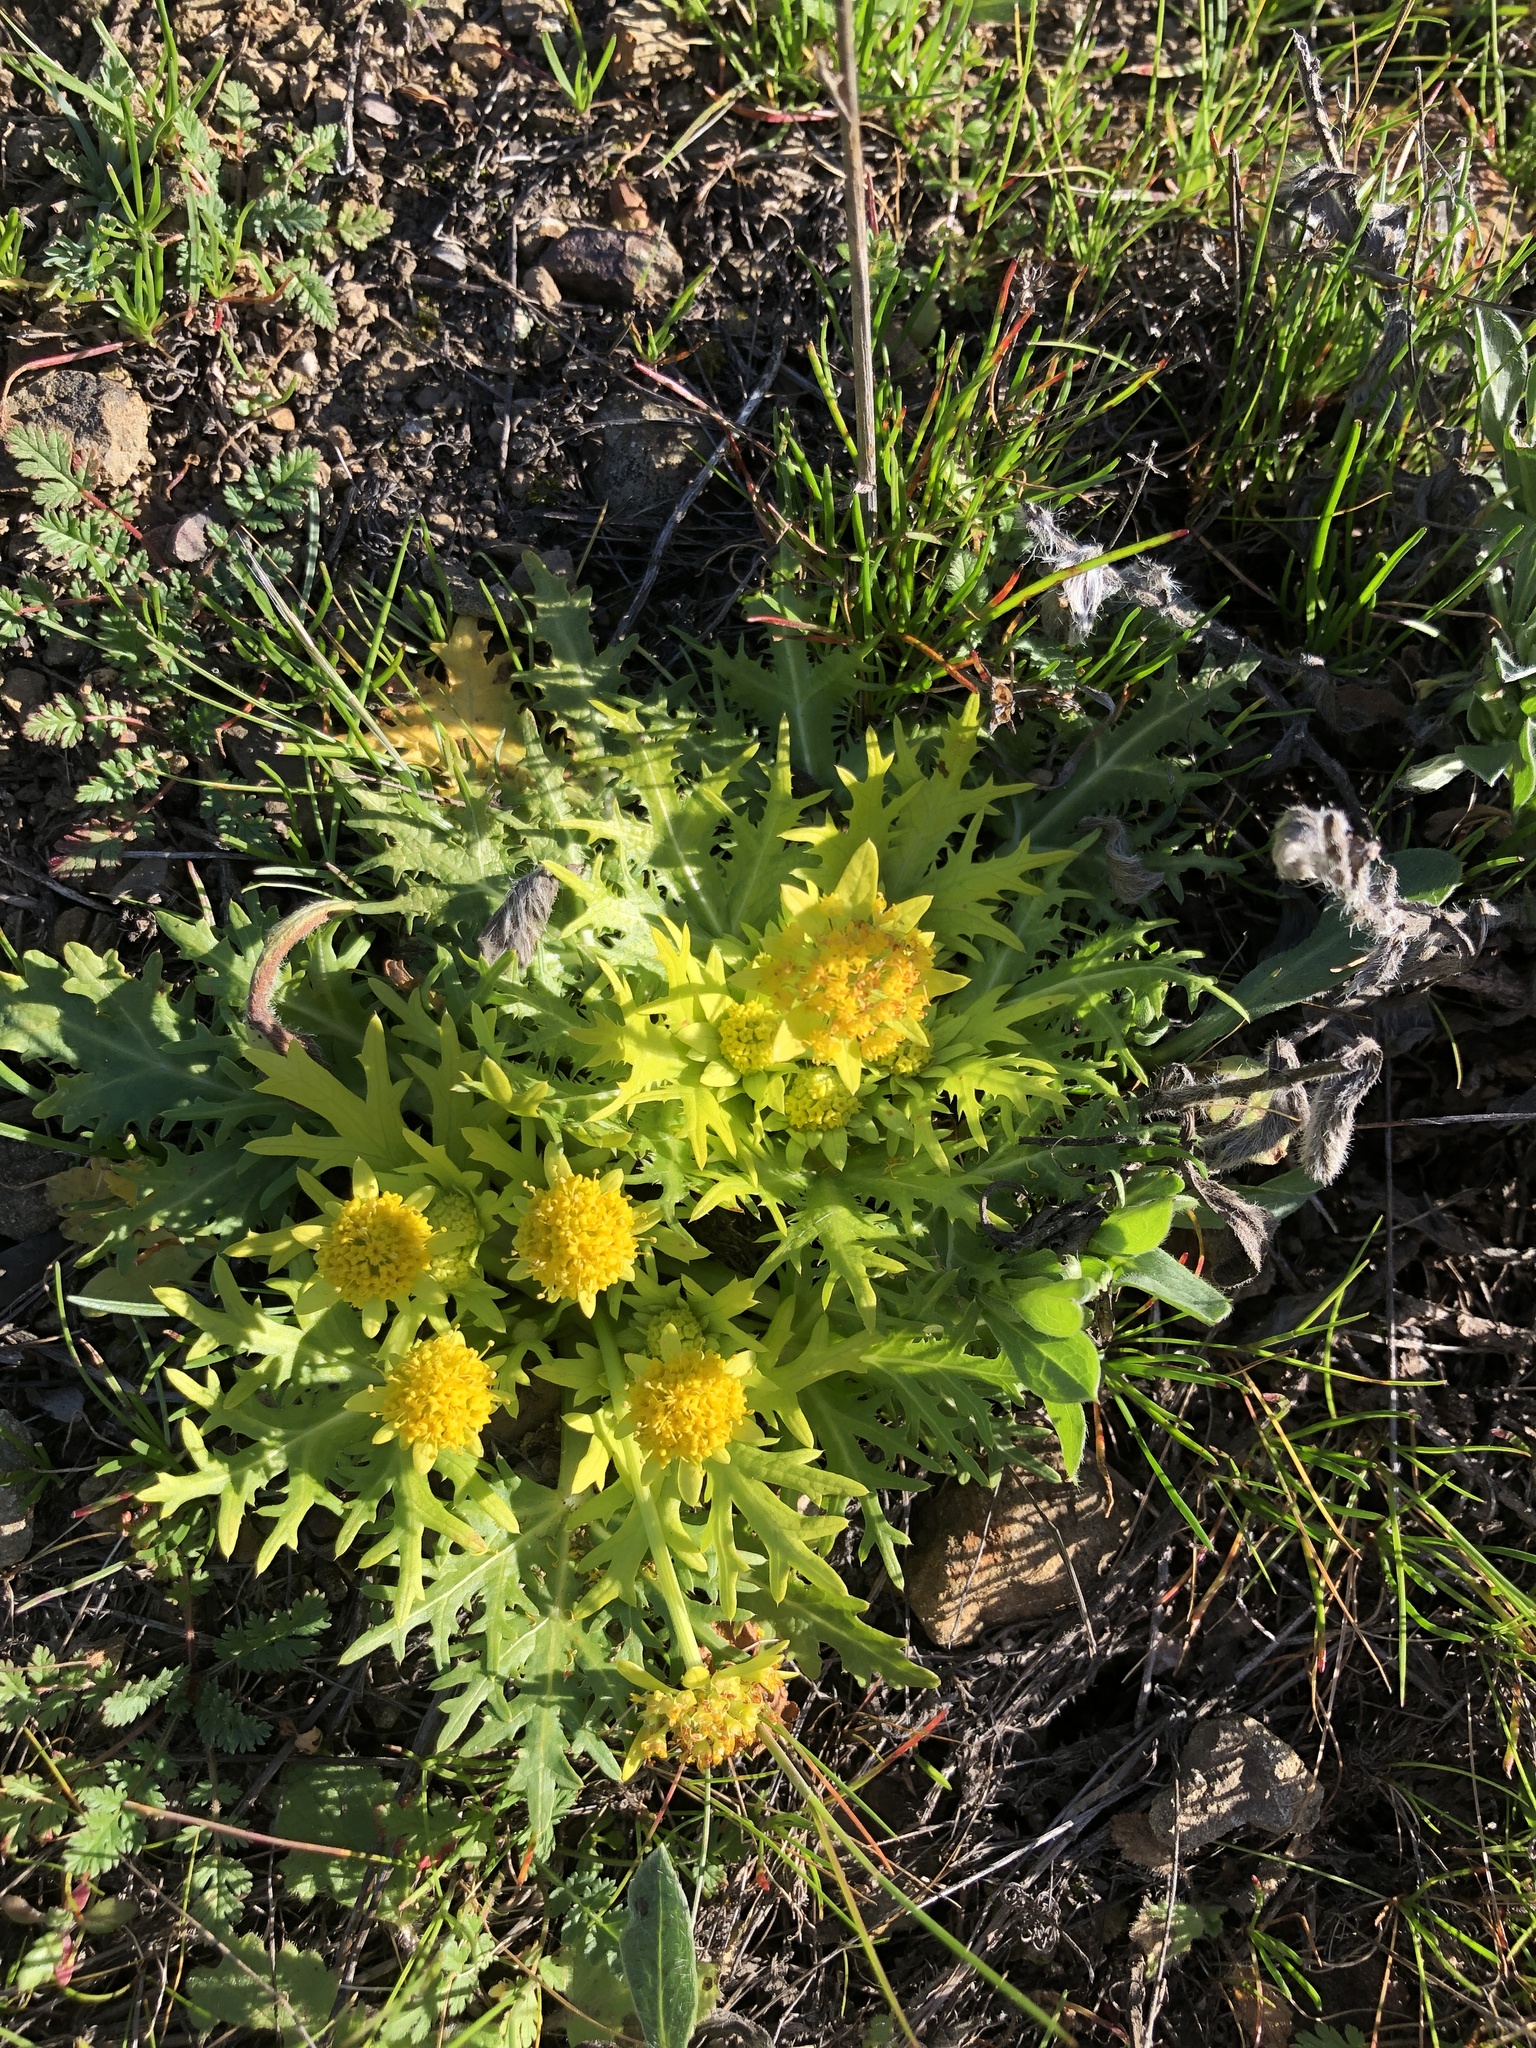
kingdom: Plantae
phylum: Tracheophyta
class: Magnoliopsida
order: Apiales
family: Apiaceae
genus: Sanicula
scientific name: Sanicula arctopoides
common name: Footsteps-of-spring
